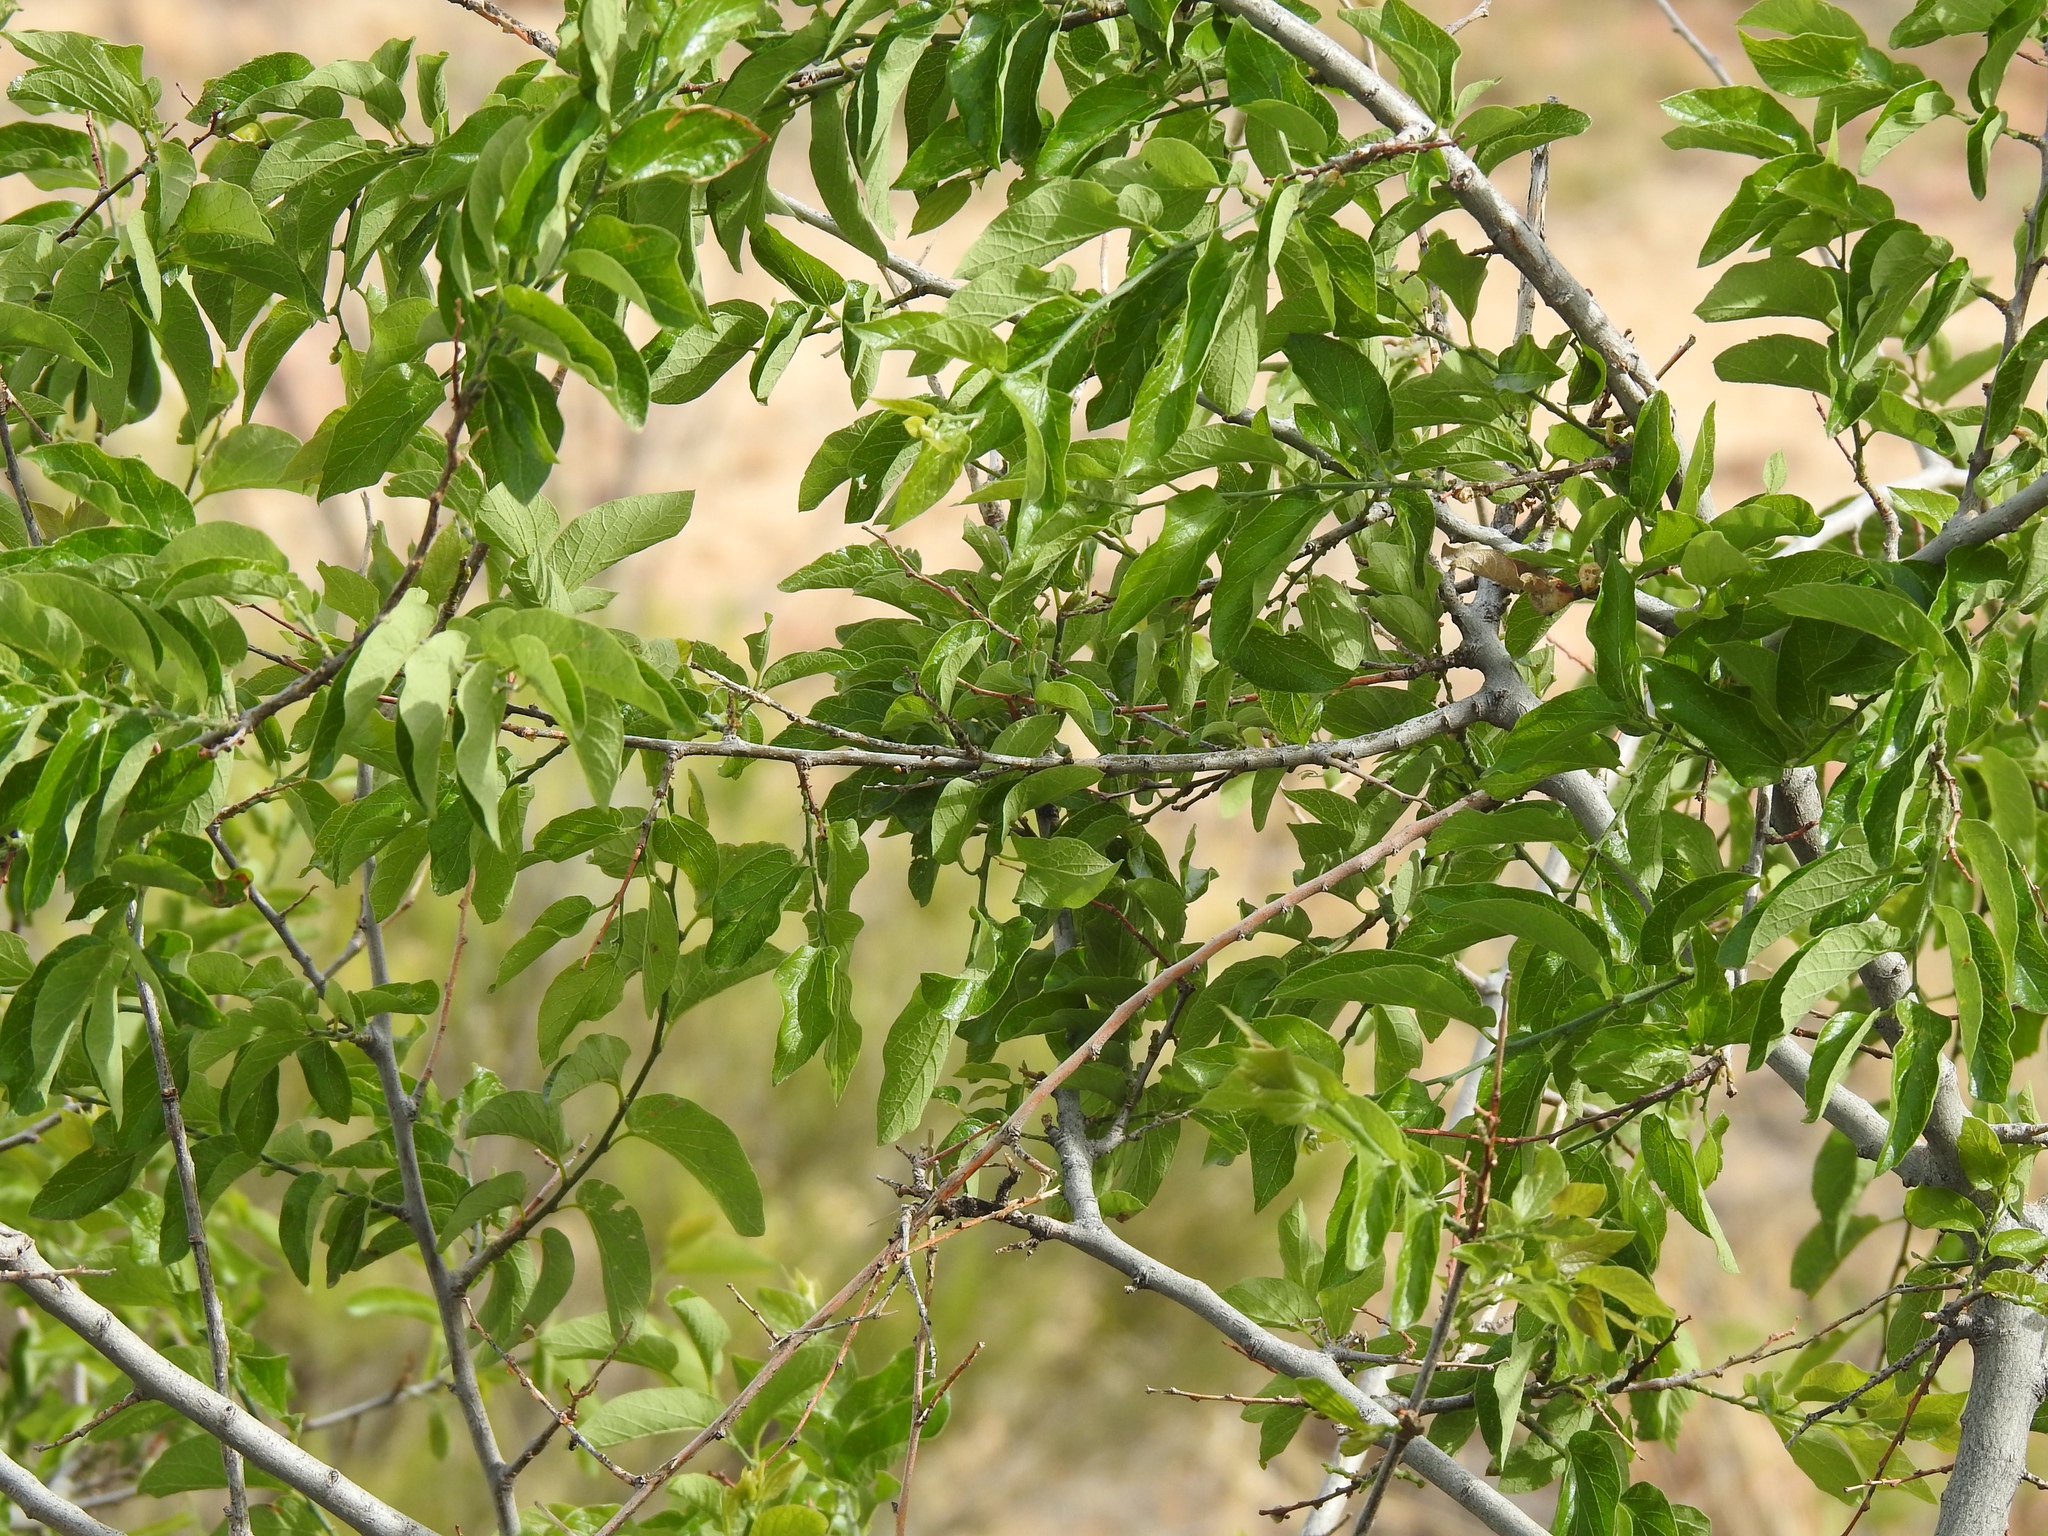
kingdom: Plantae
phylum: Tracheophyta
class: Magnoliopsida
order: Rosales
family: Cannabaceae
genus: Celtis
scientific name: Celtis reticulata
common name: Netleaf hackberry
